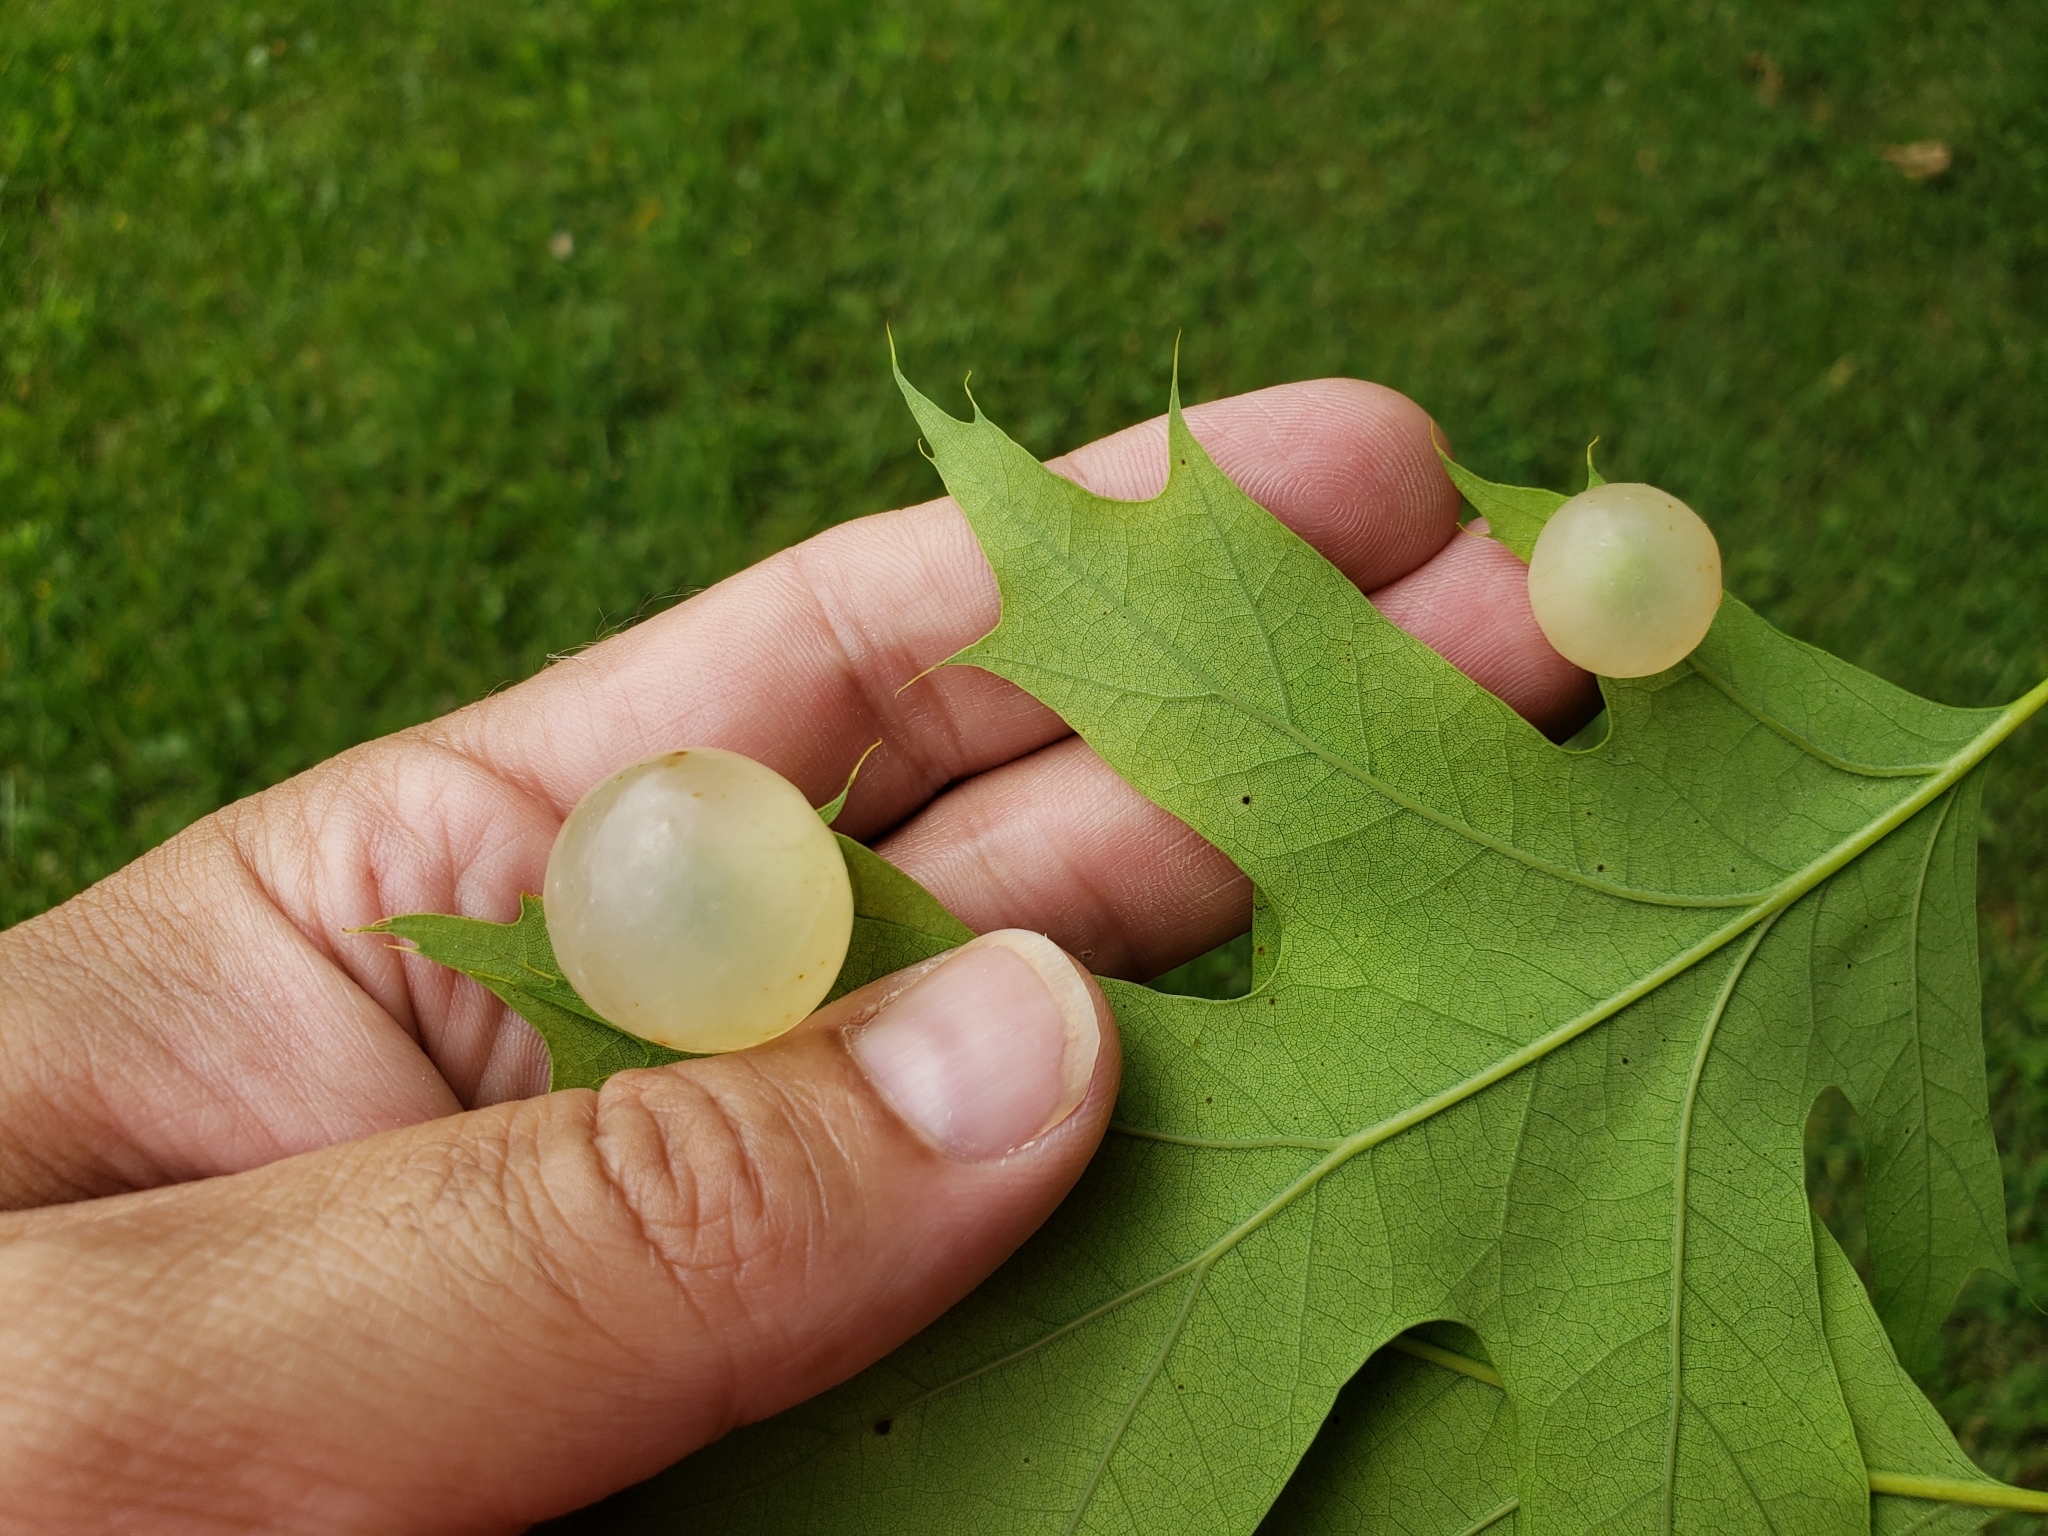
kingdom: Animalia
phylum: Arthropoda
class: Insecta
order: Hymenoptera
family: Cynipidae
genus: Amphibolips
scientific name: Amphibolips
